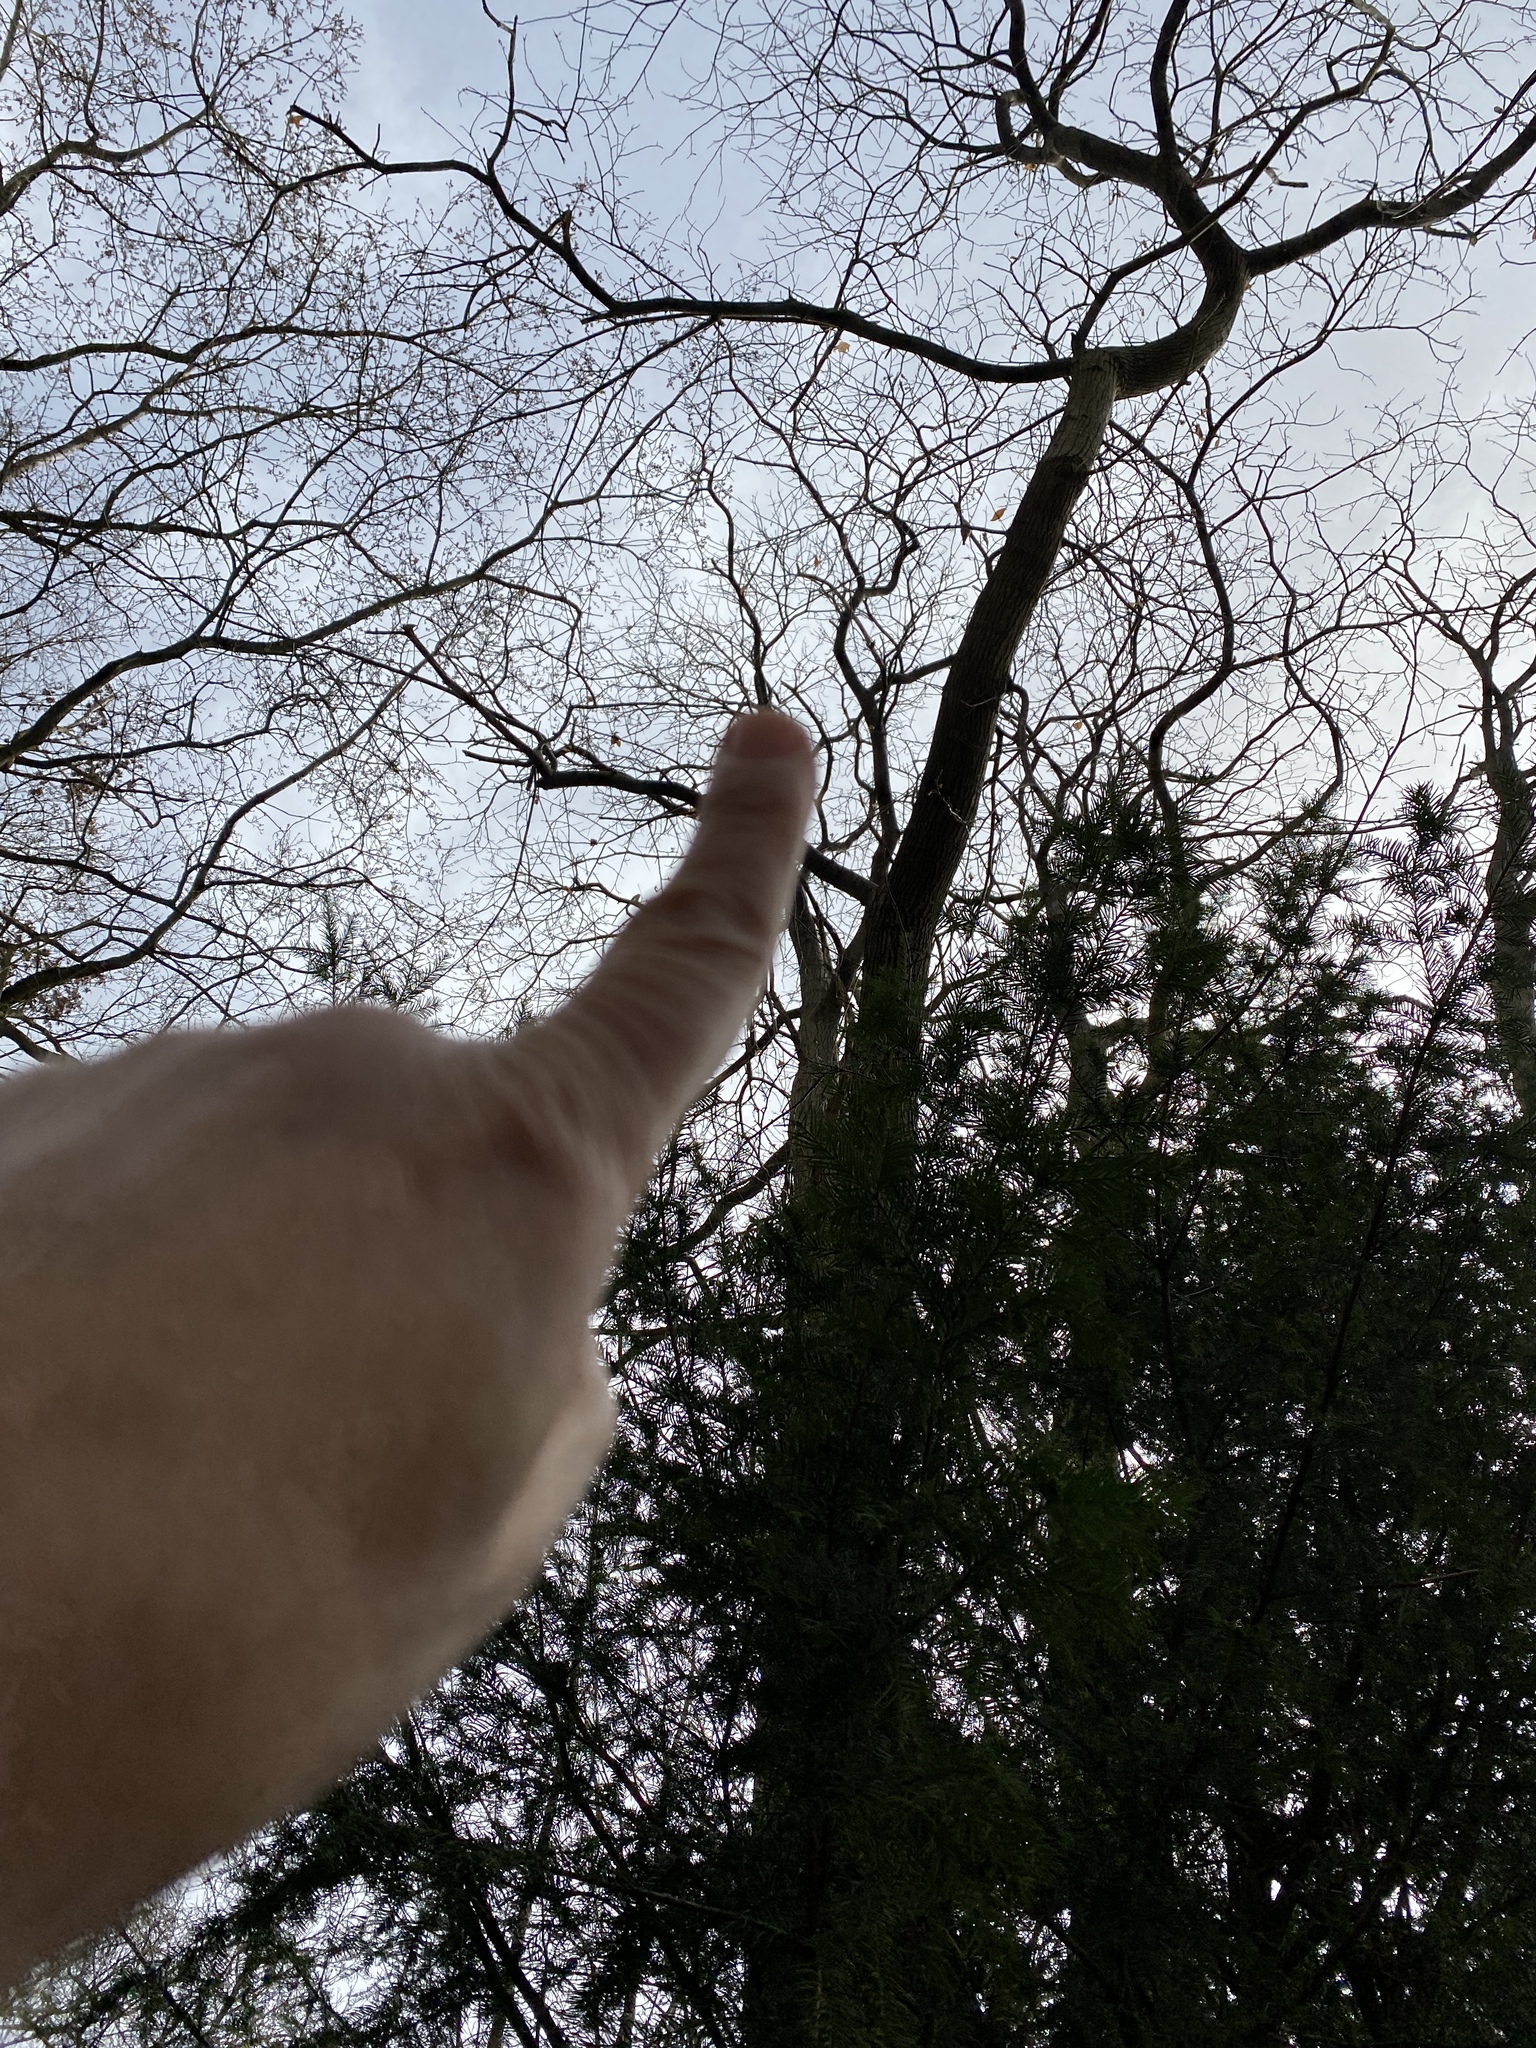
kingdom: Animalia
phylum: Chordata
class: Aves
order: Passeriformes
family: Sittidae
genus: Sitta
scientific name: Sitta europaea
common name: Eurasian nuthatch
